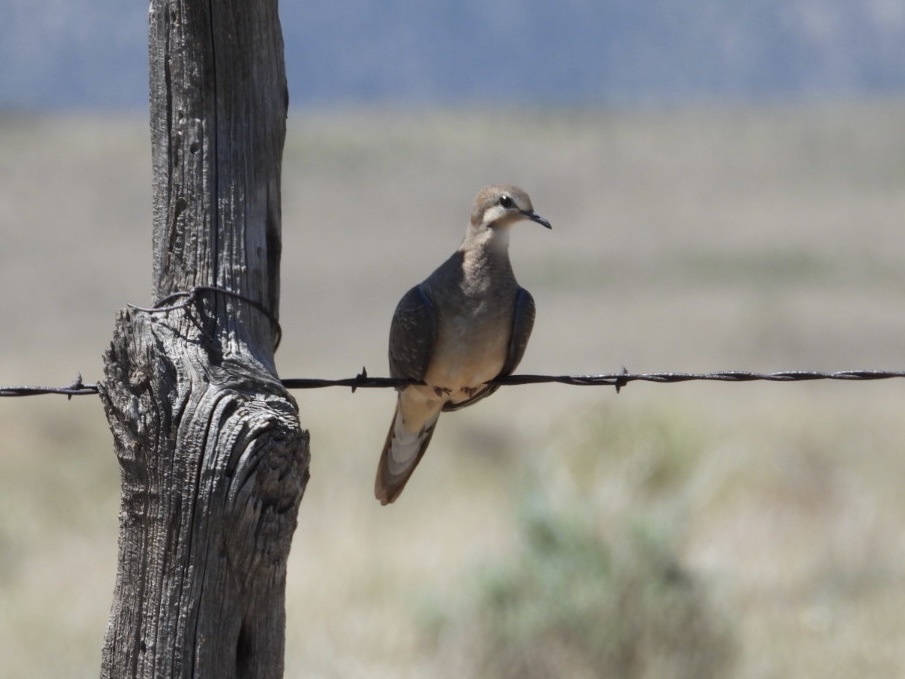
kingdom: Animalia
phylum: Chordata
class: Aves
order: Columbiformes
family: Columbidae
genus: Zenaida
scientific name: Zenaida macroura
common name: Mourning dove
